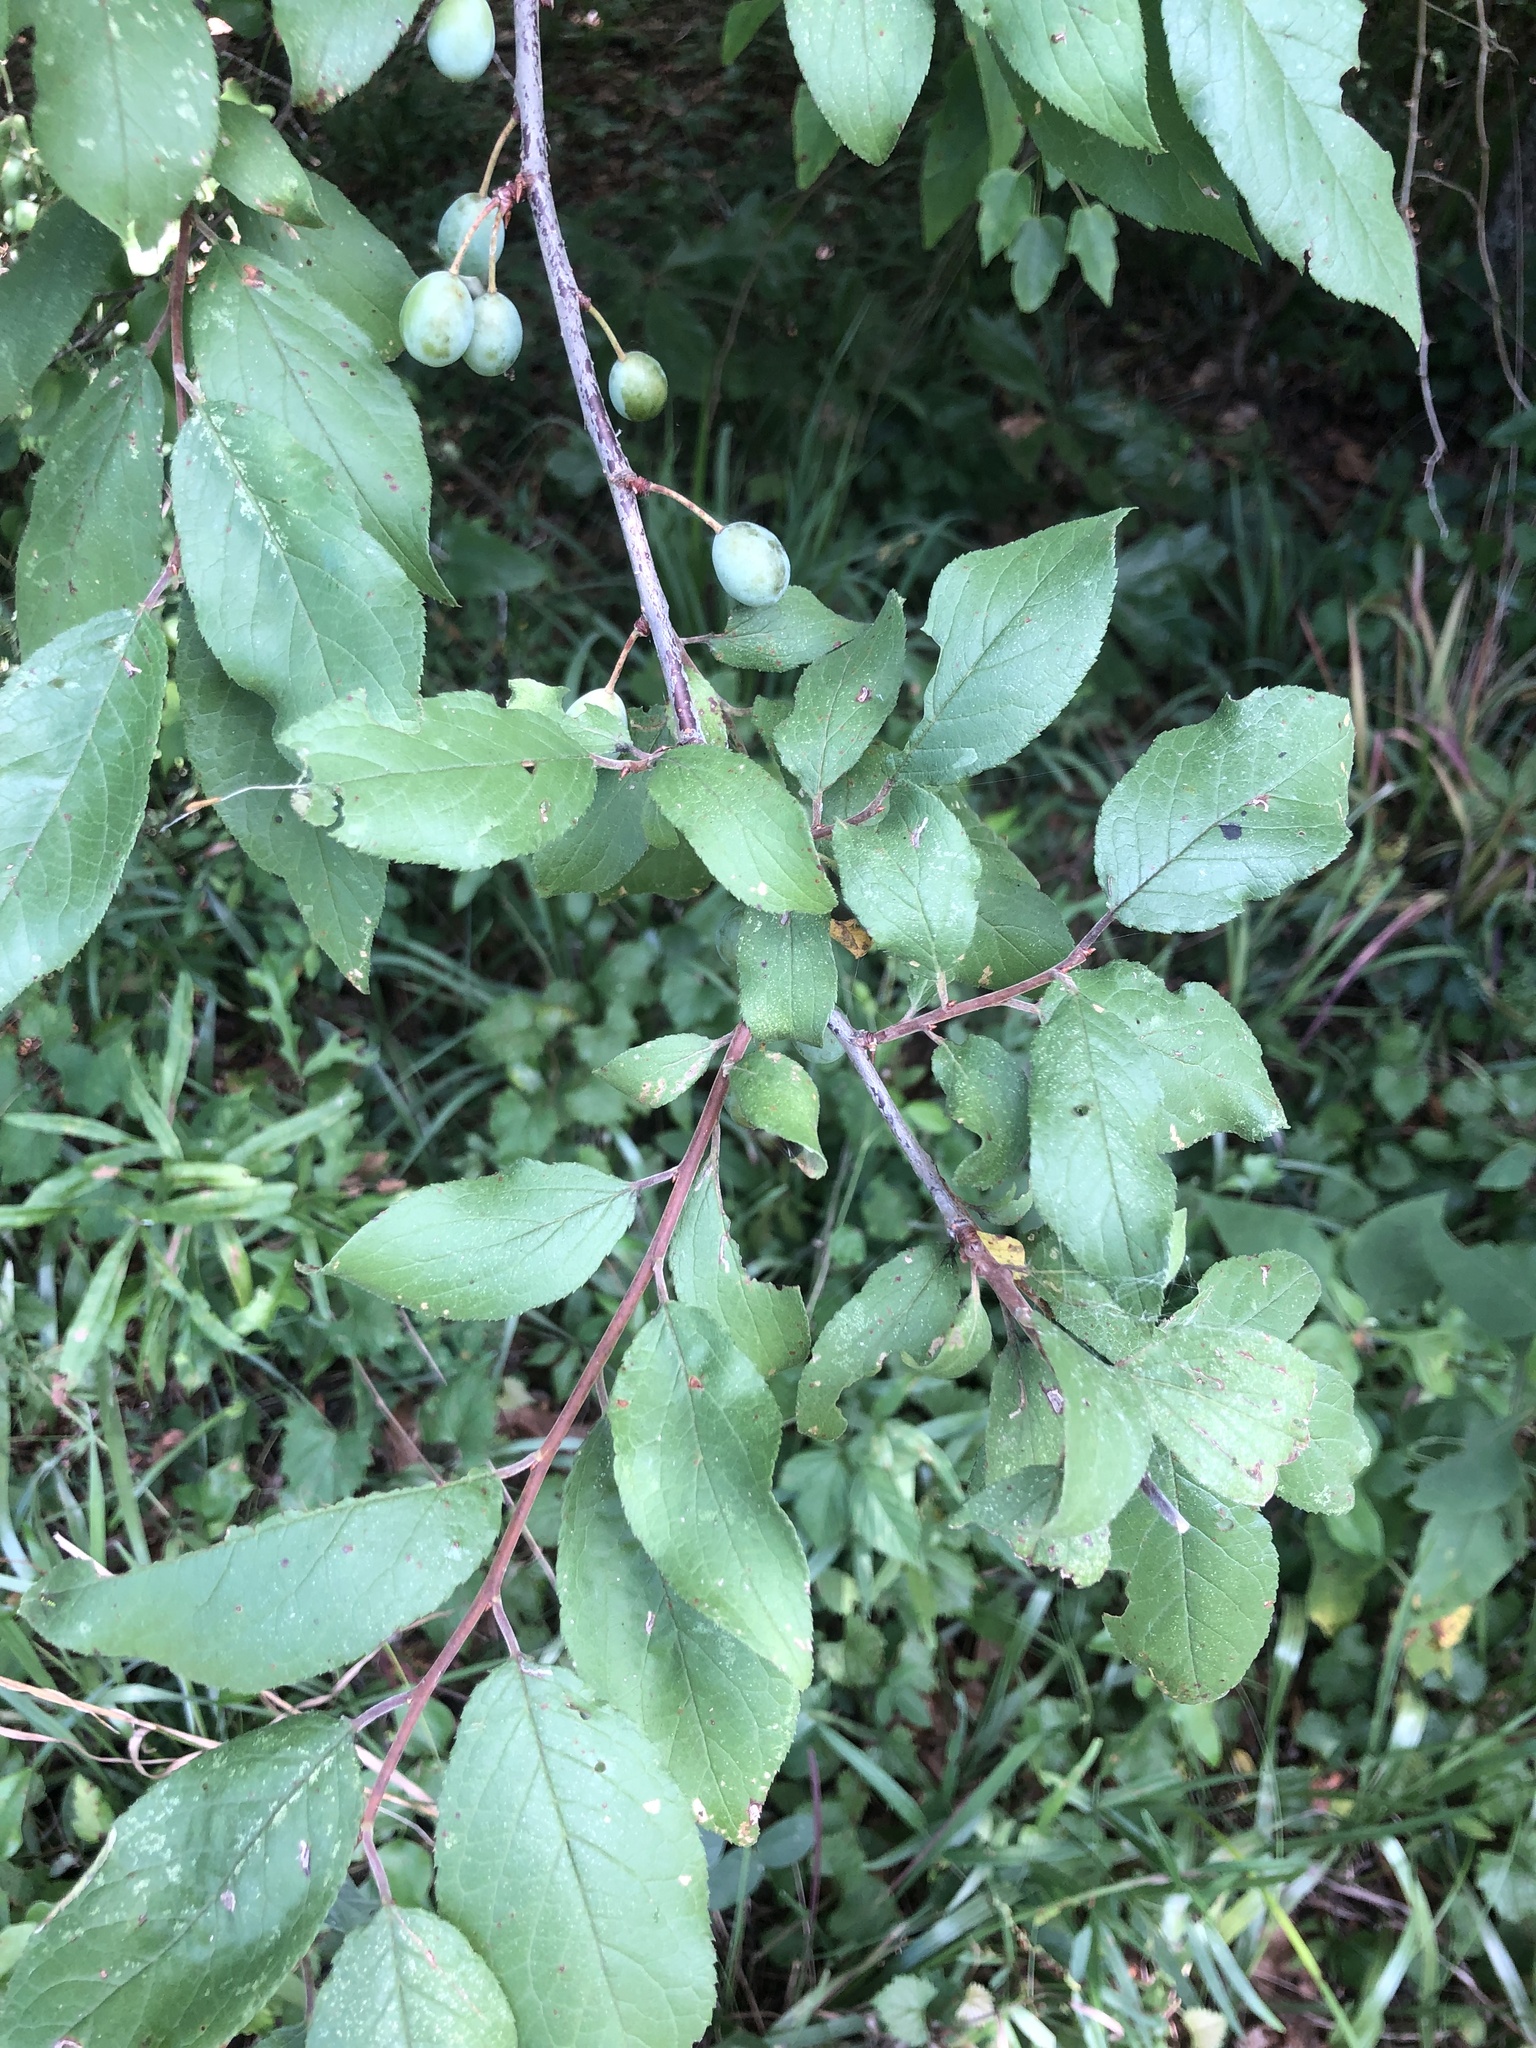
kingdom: Plantae
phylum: Tracheophyta
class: Magnoliopsida
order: Rosales
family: Rosaceae
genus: Prunus
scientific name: Prunus umbellata
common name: Allegheny plum
